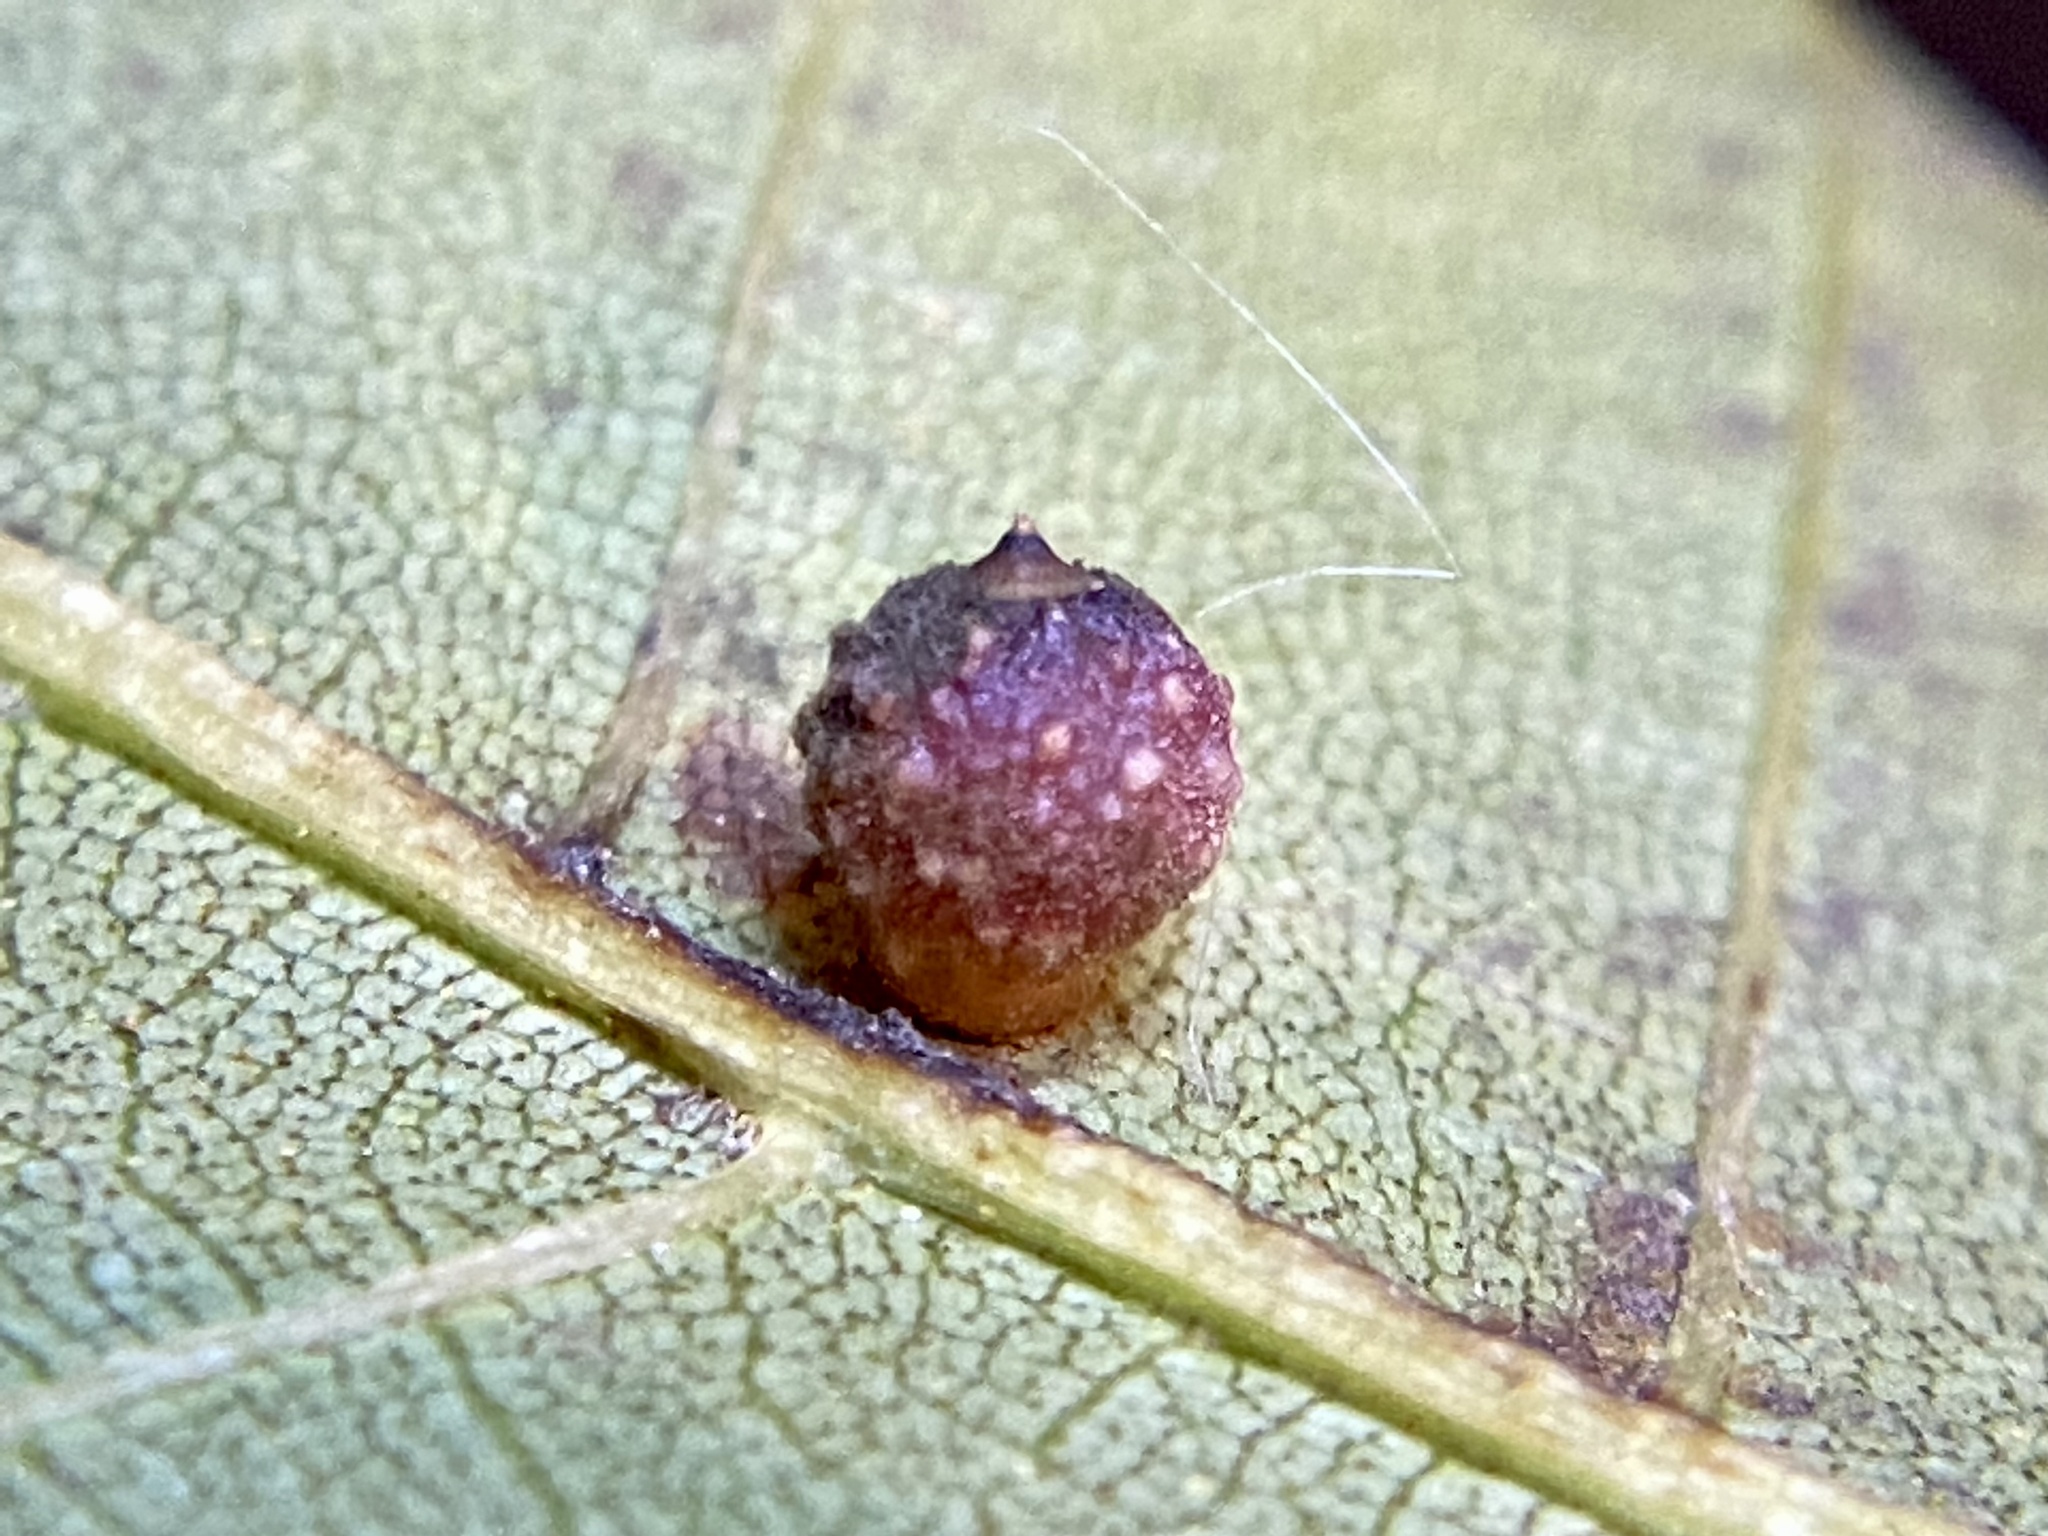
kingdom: Animalia
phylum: Arthropoda
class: Insecta
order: Diptera
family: Cecidomyiidae
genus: Caryomyia
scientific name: Caryomyia tuberidolium
